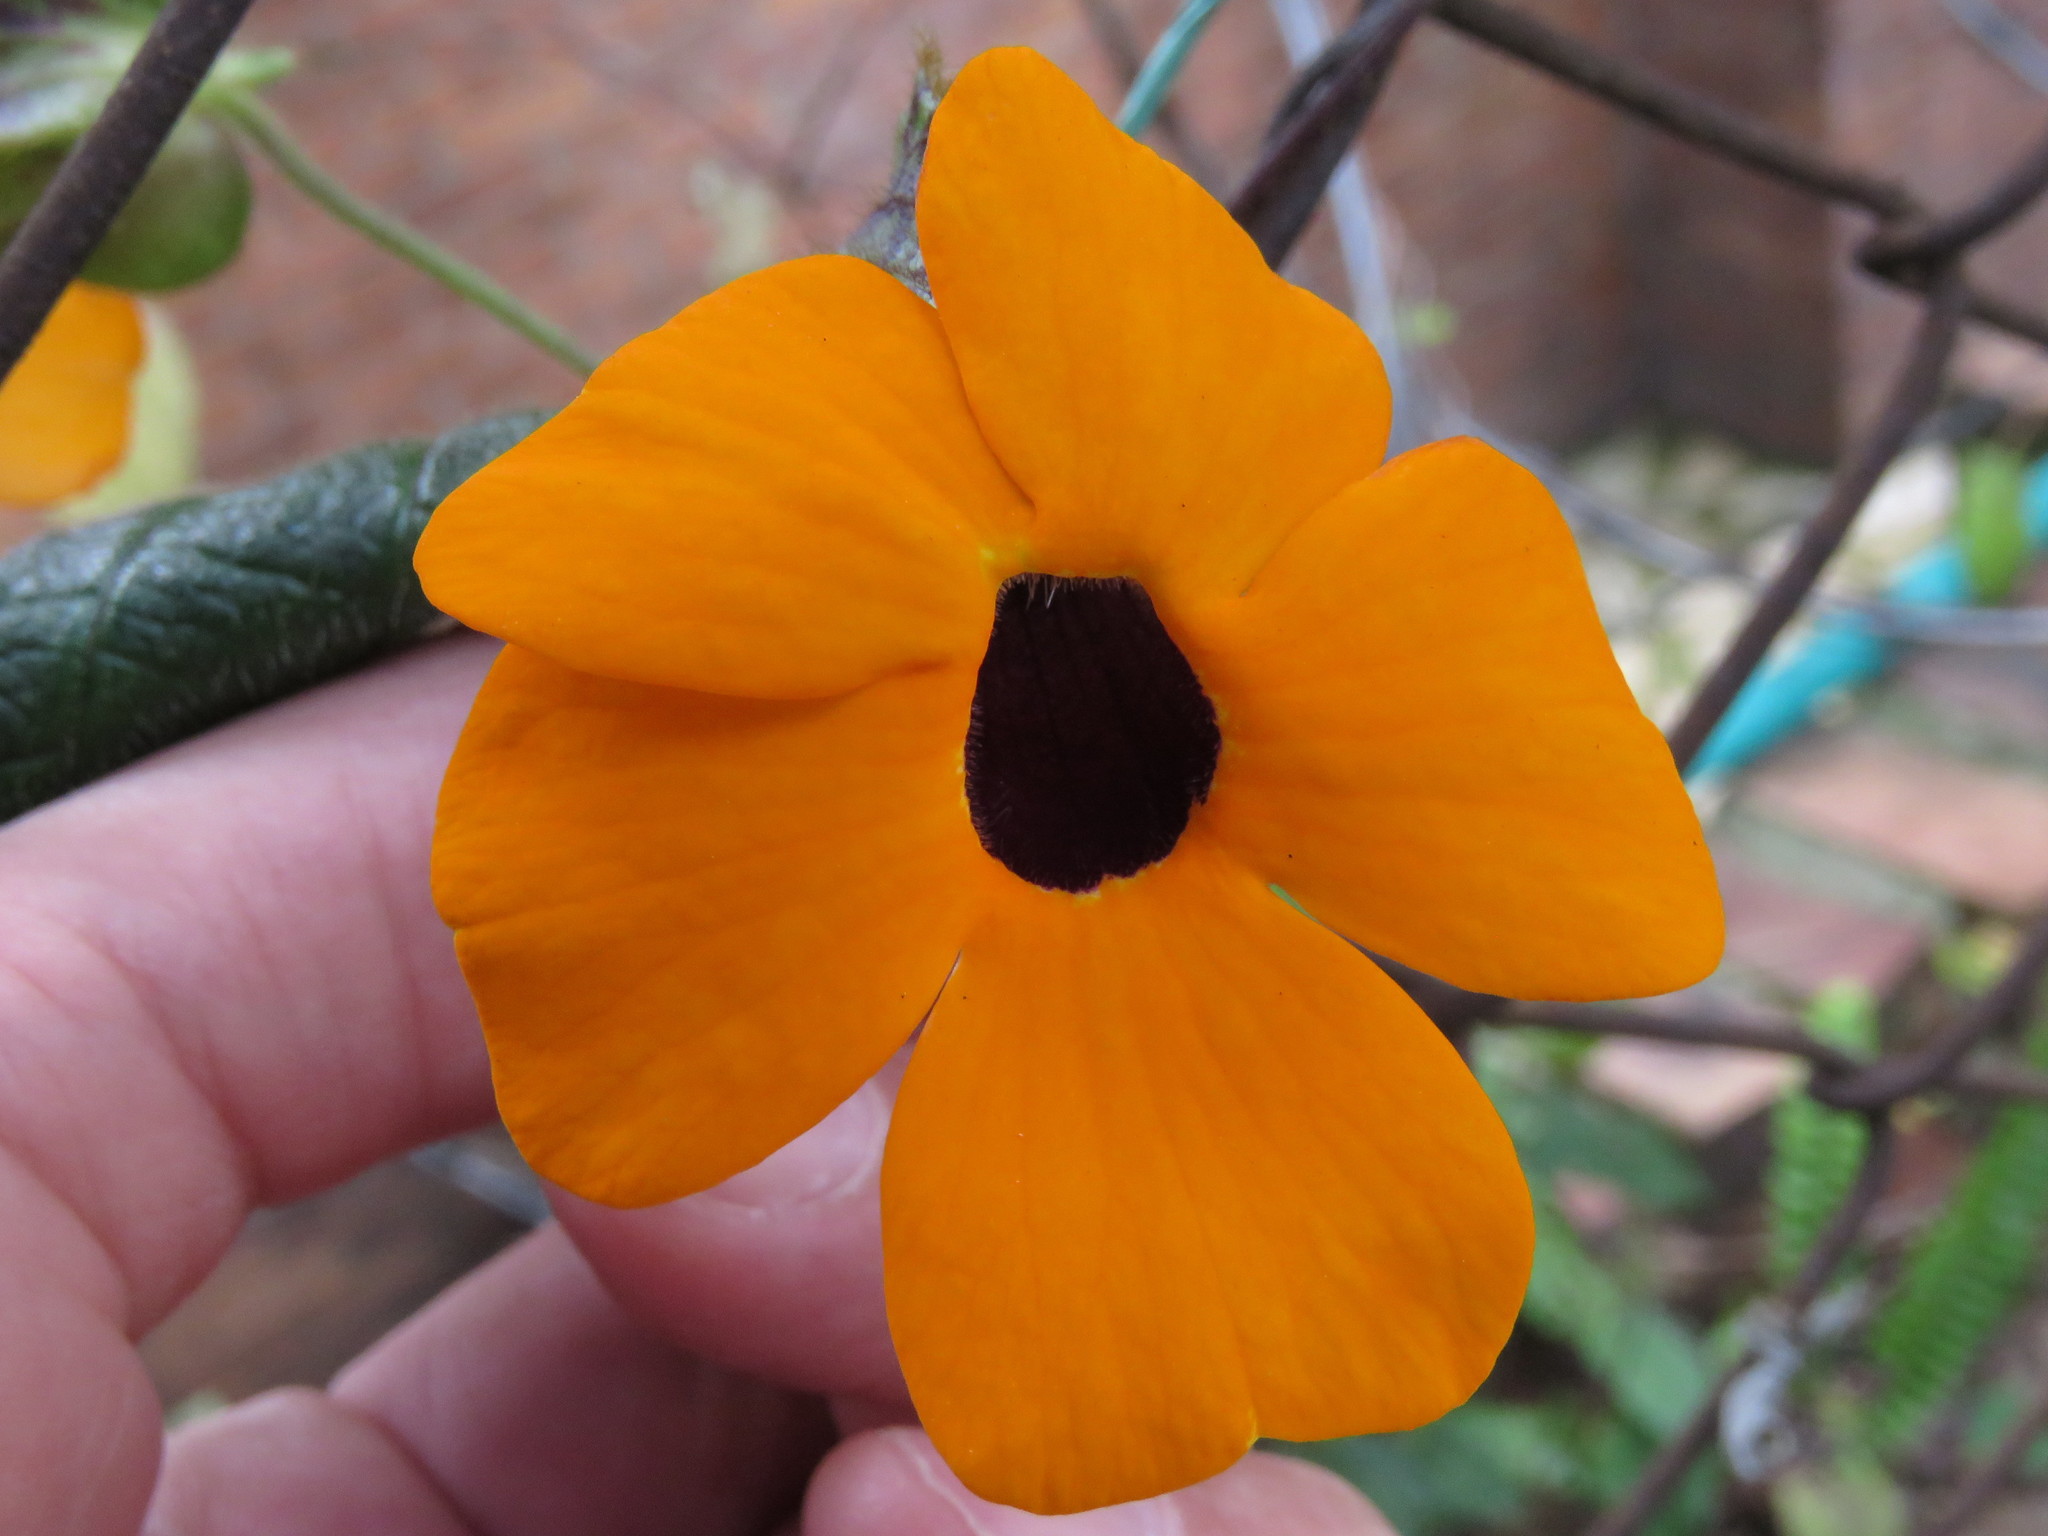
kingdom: Plantae
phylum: Tracheophyta
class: Magnoliopsida
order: Lamiales
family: Acanthaceae
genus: Thunbergia
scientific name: Thunbergia alata
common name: Blackeyed susan vine
